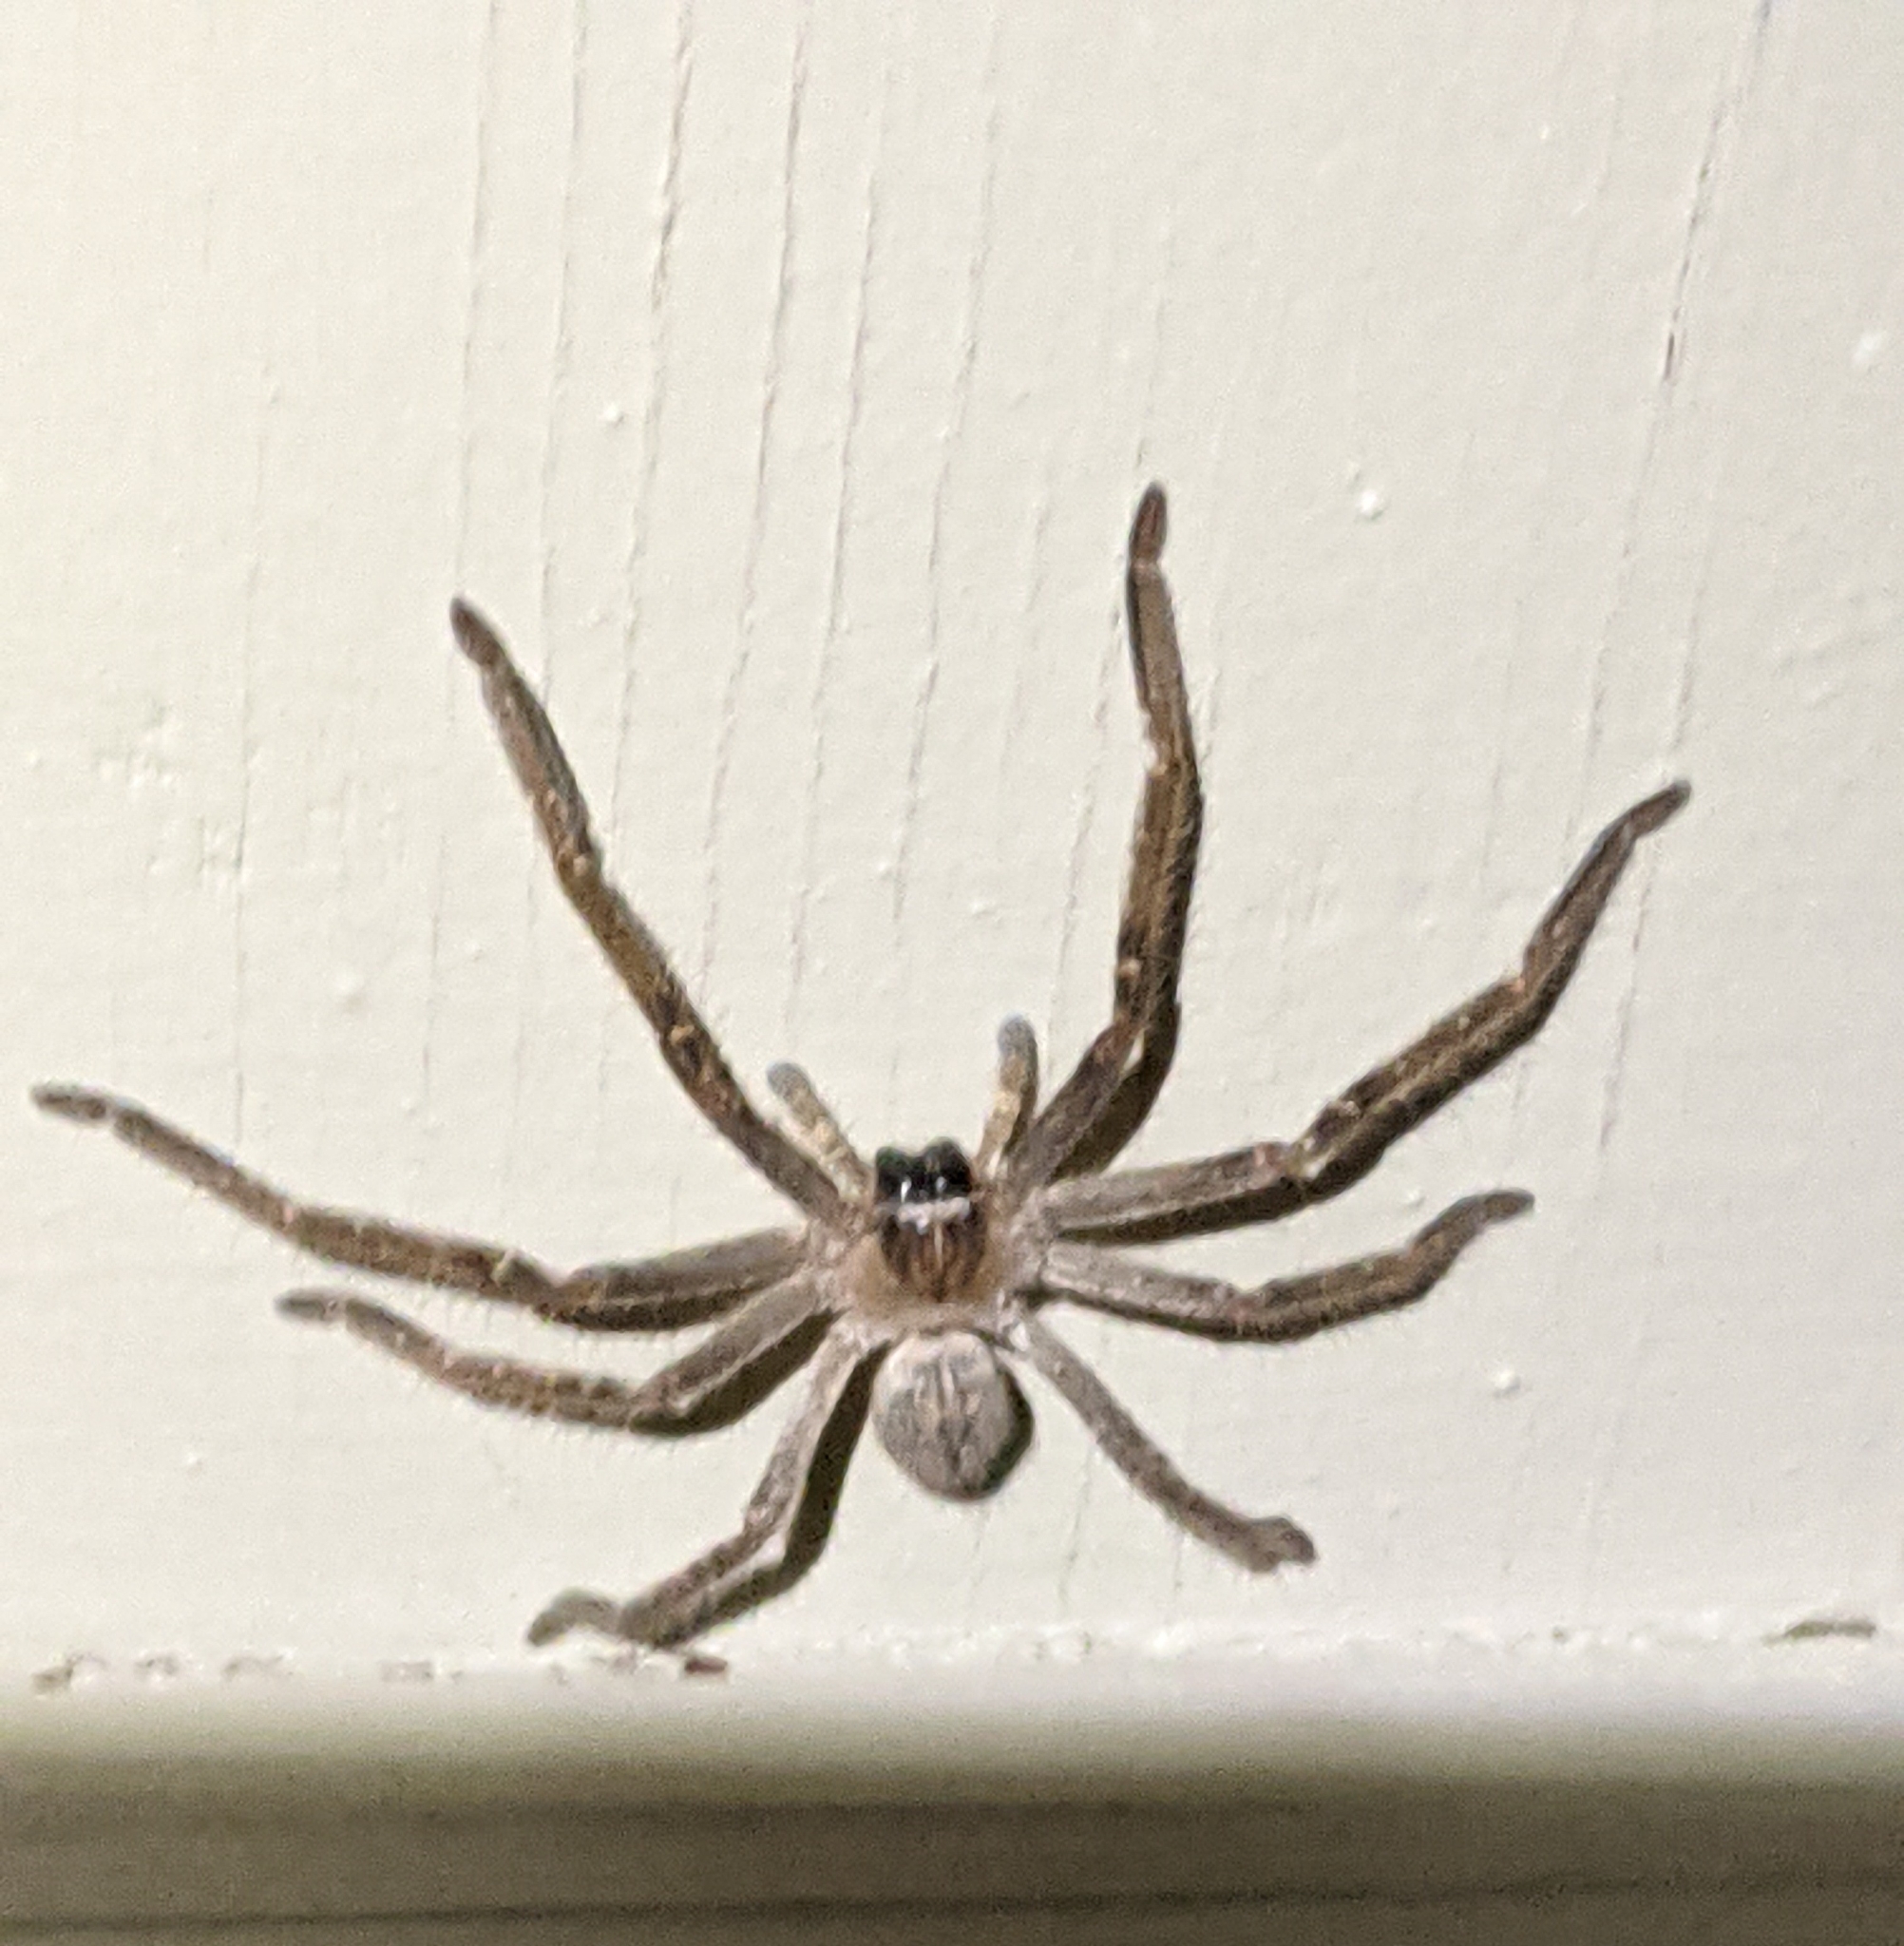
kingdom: Animalia
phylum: Arthropoda
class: Arachnida
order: Araneae
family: Sparassidae
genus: Olios
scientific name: Olios giganteus
